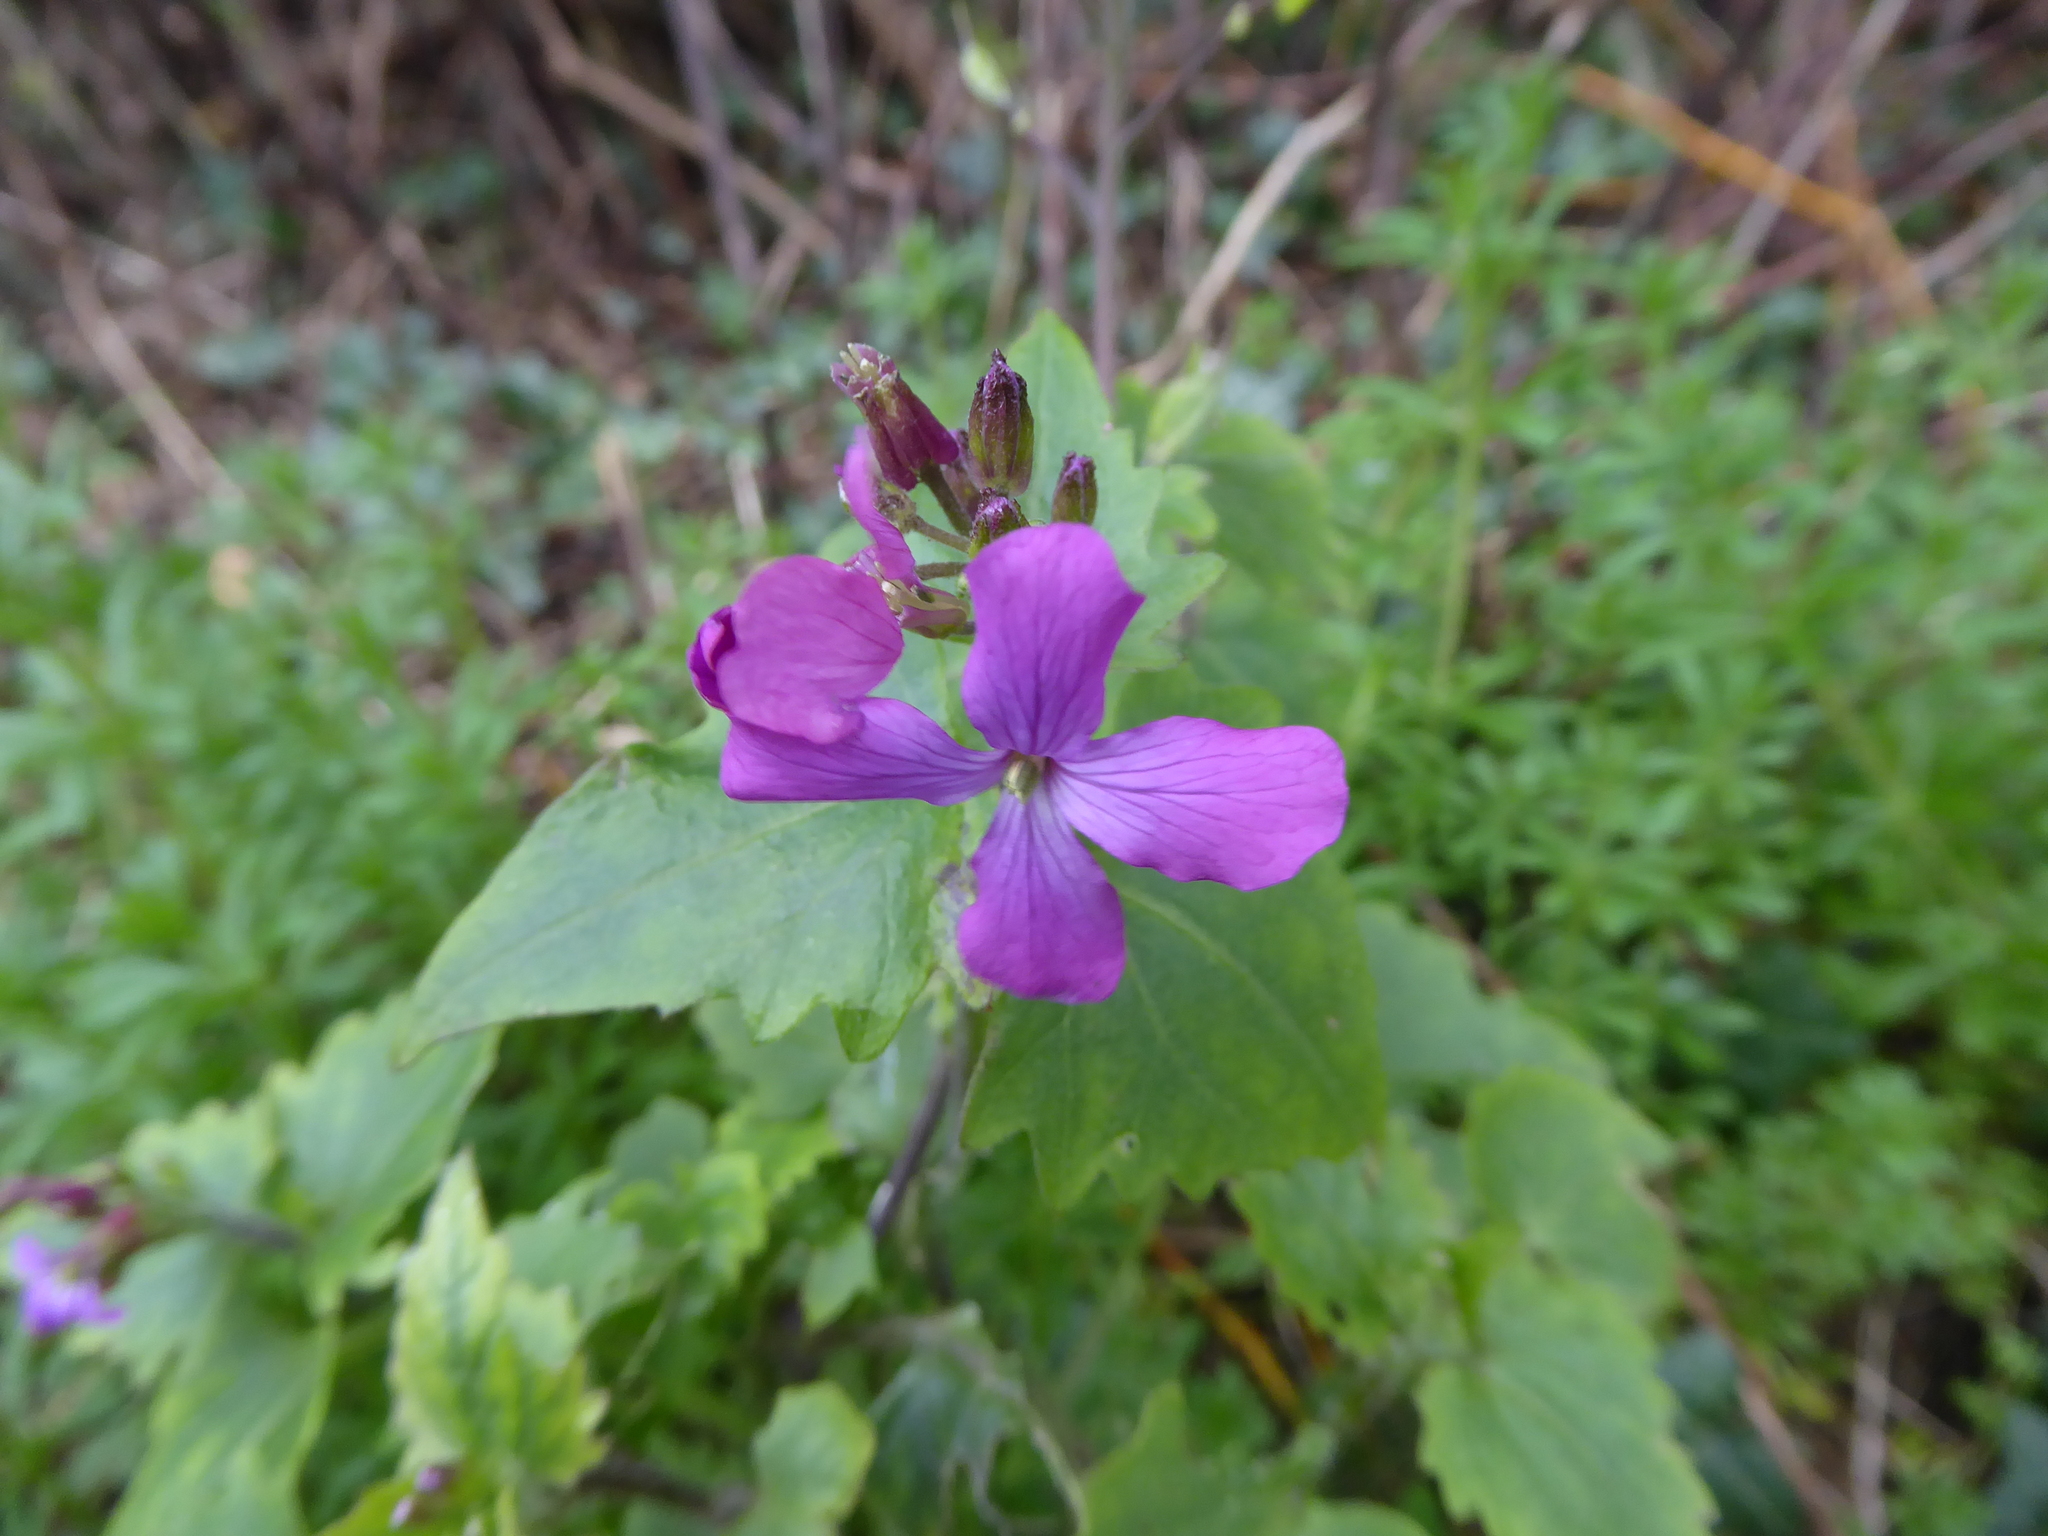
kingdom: Plantae
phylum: Tracheophyta
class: Magnoliopsida
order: Brassicales
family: Brassicaceae
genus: Lunaria
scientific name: Lunaria annua
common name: Honesty
